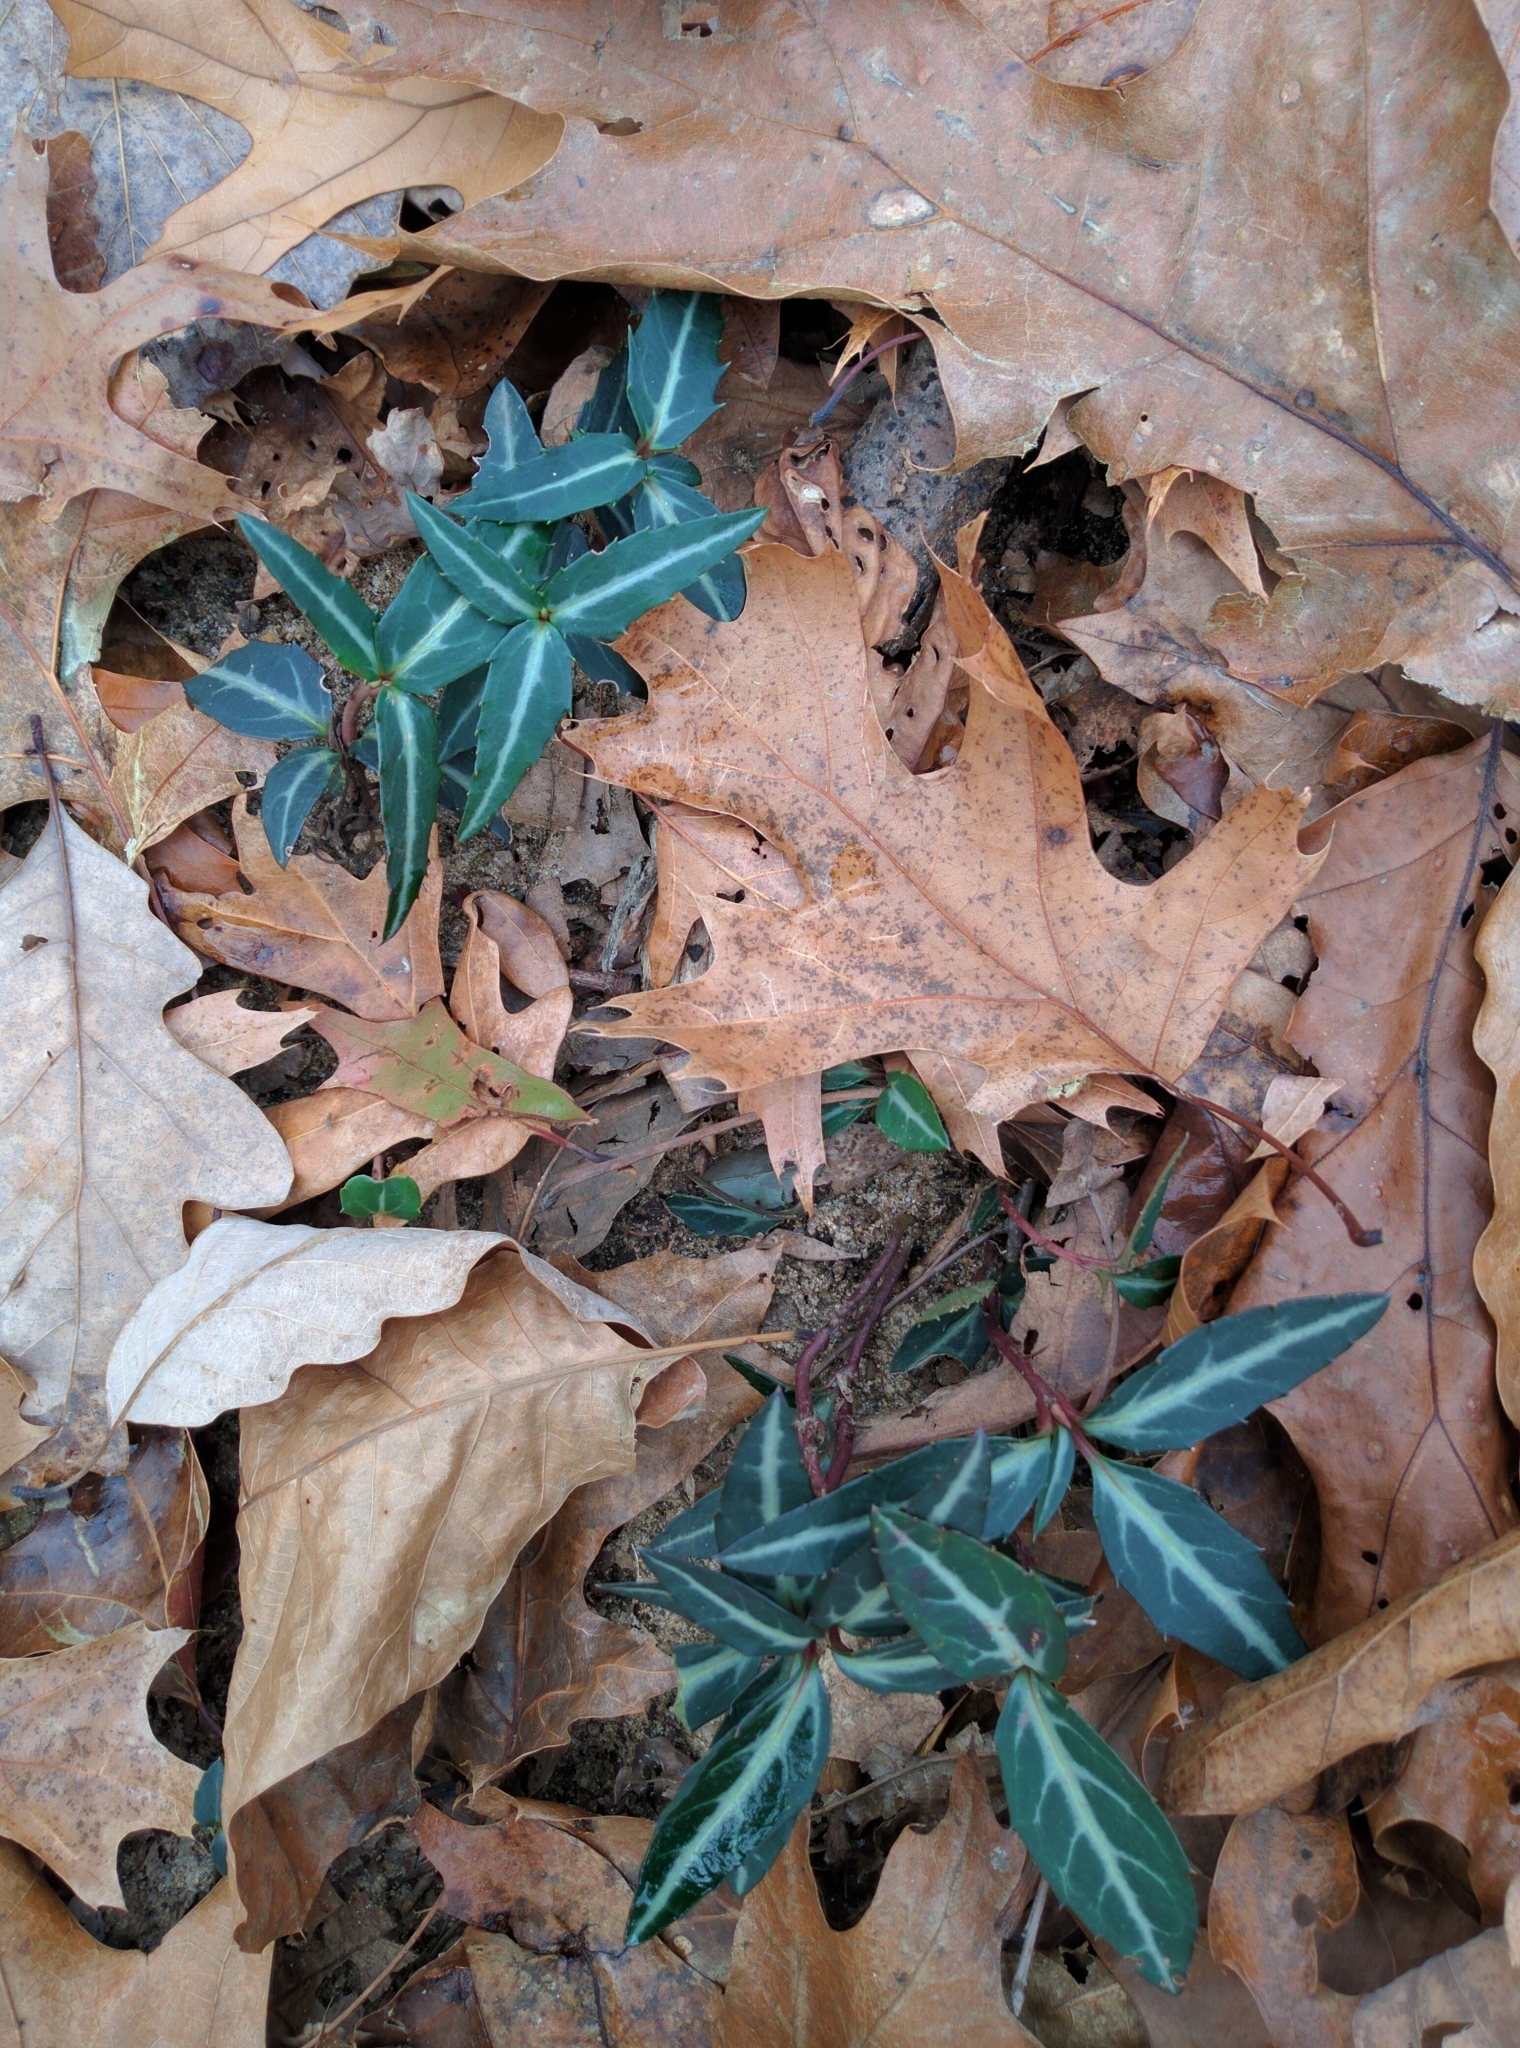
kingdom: Plantae
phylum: Tracheophyta
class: Magnoliopsida
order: Ericales
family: Ericaceae
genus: Chimaphila
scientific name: Chimaphila maculata
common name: Spotted pipsissewa
